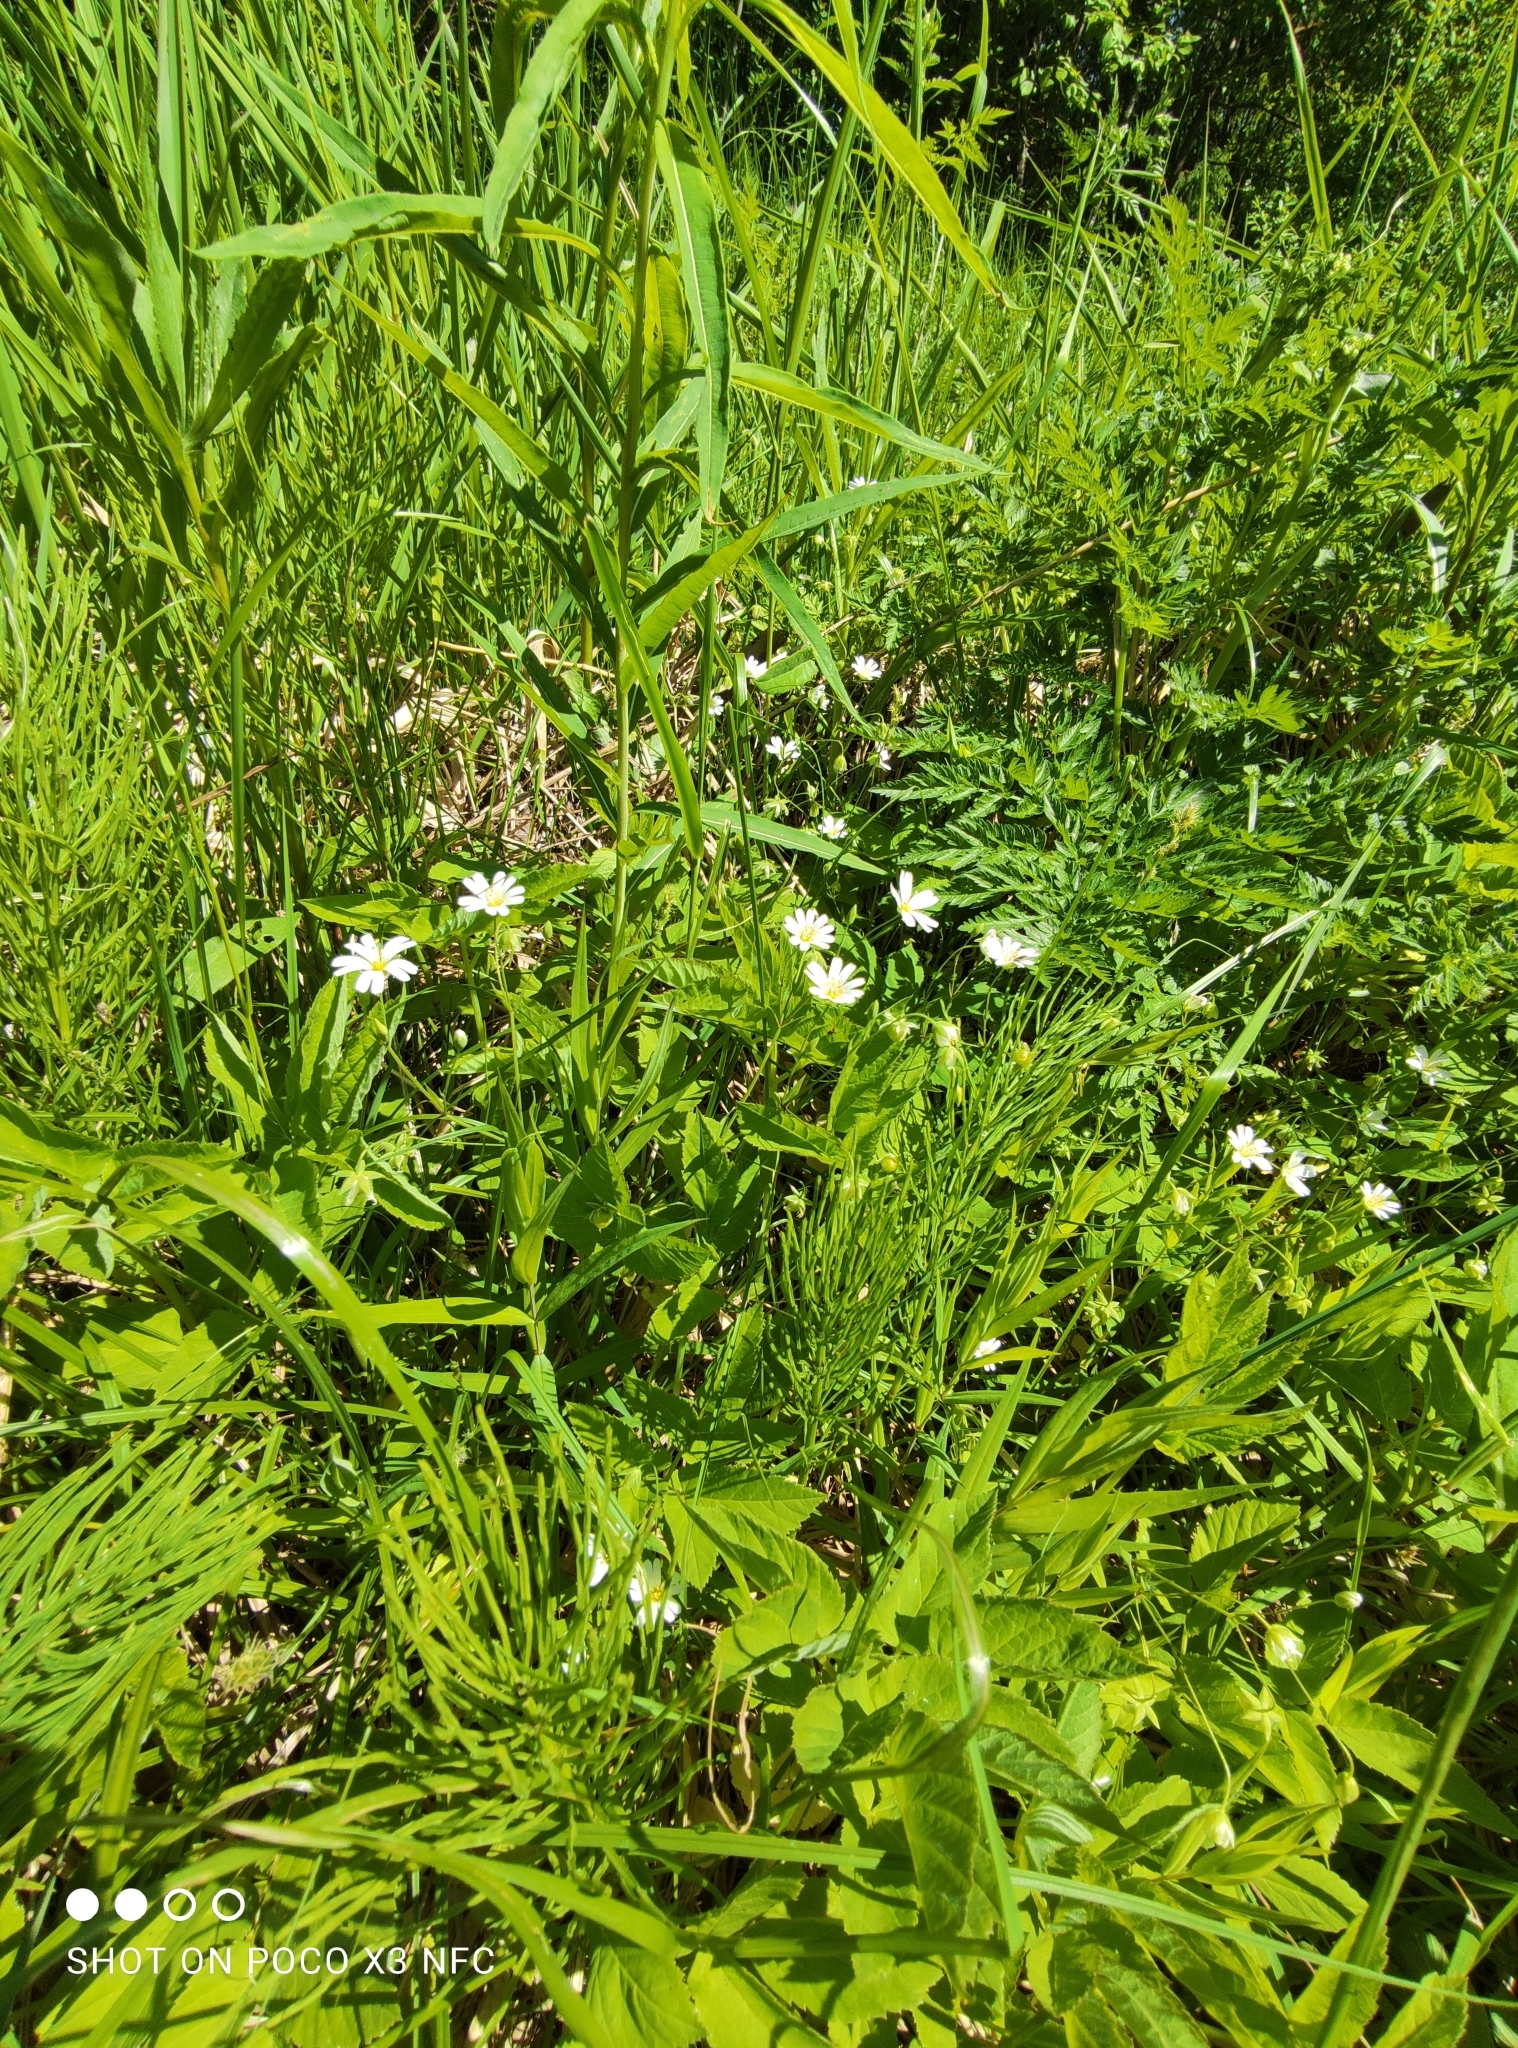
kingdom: Plantae
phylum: Tracheophyta
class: Magnoliopsida
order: Caryophyllales
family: Caryophyllaceae
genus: Rabelera
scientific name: Rabelera holostea
